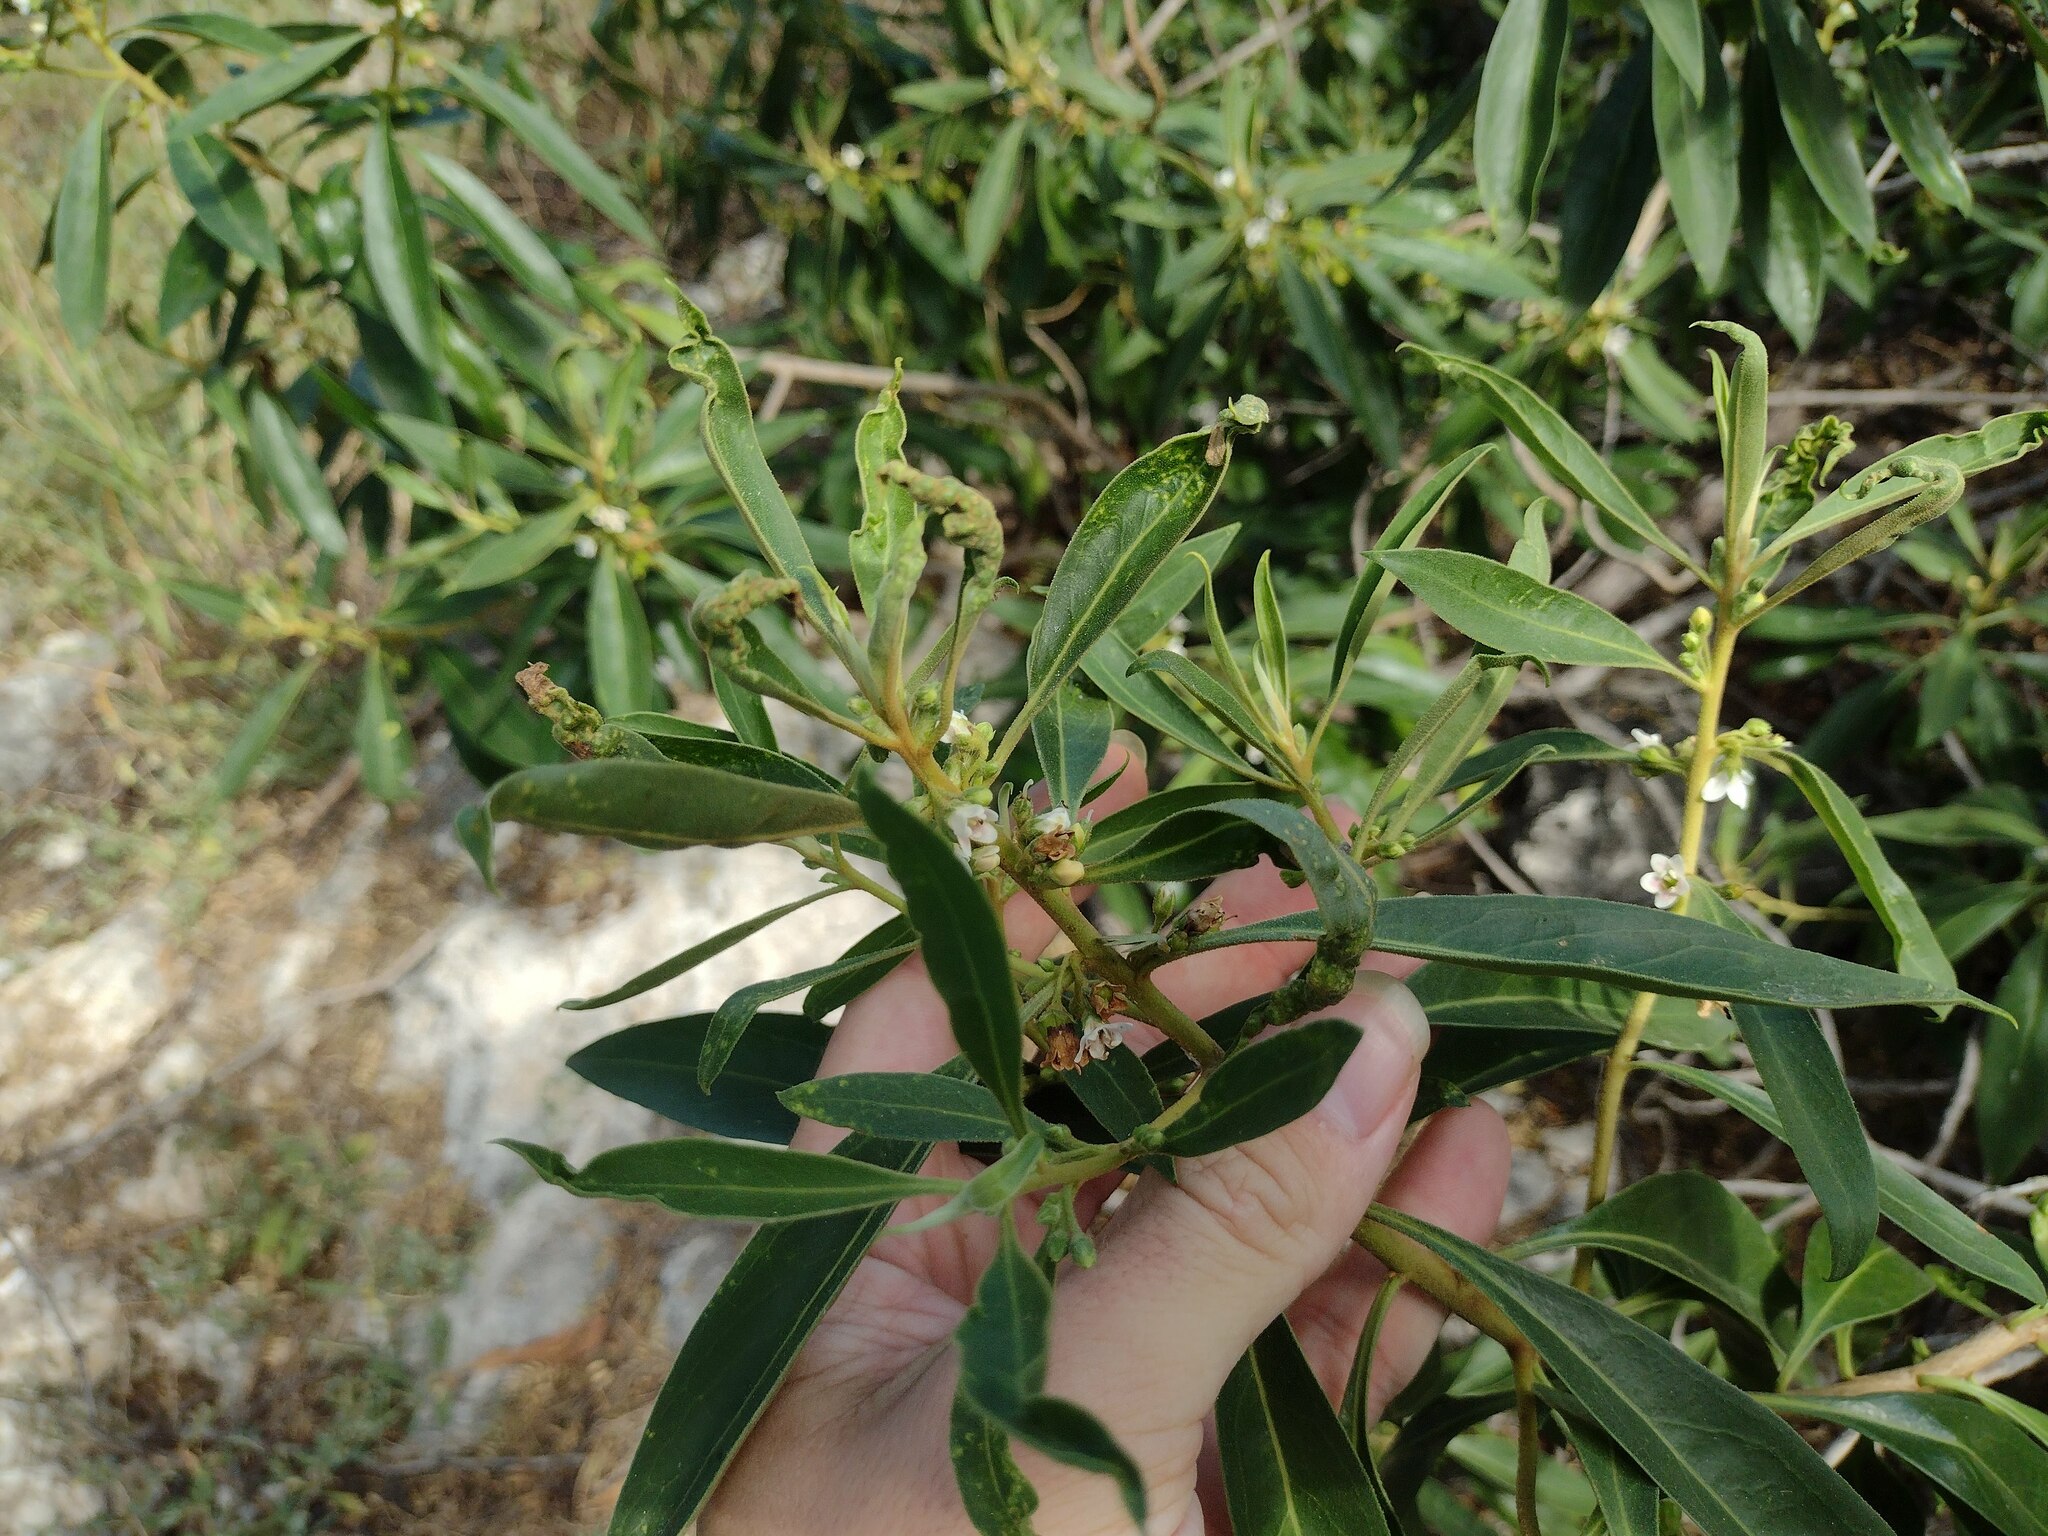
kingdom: Plantae
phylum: Tracheophyta
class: Magnoliopsida
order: Lamiales
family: Scrophulariaceae
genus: Myoporum
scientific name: Myoporum stellatum
